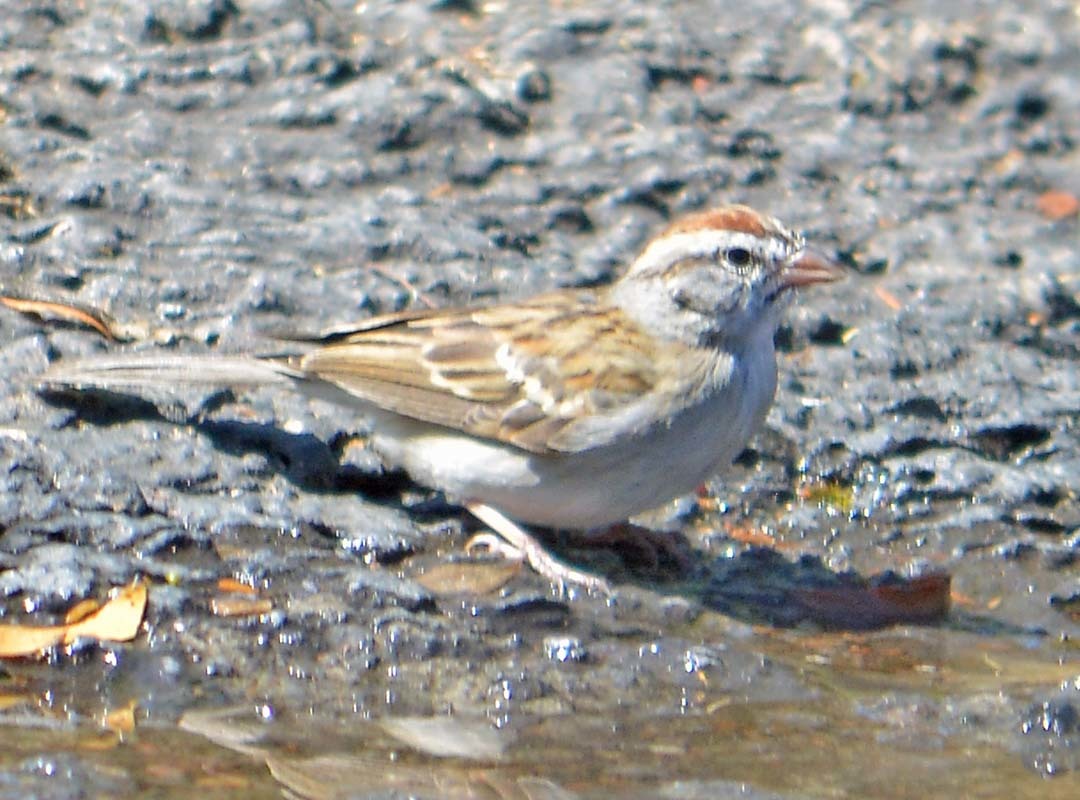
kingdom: Animalia
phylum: Chordata
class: Aves
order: Passeriformes
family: Passerellidae
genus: Spizella
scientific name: Spizella passerina
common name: Chipping sparrow
